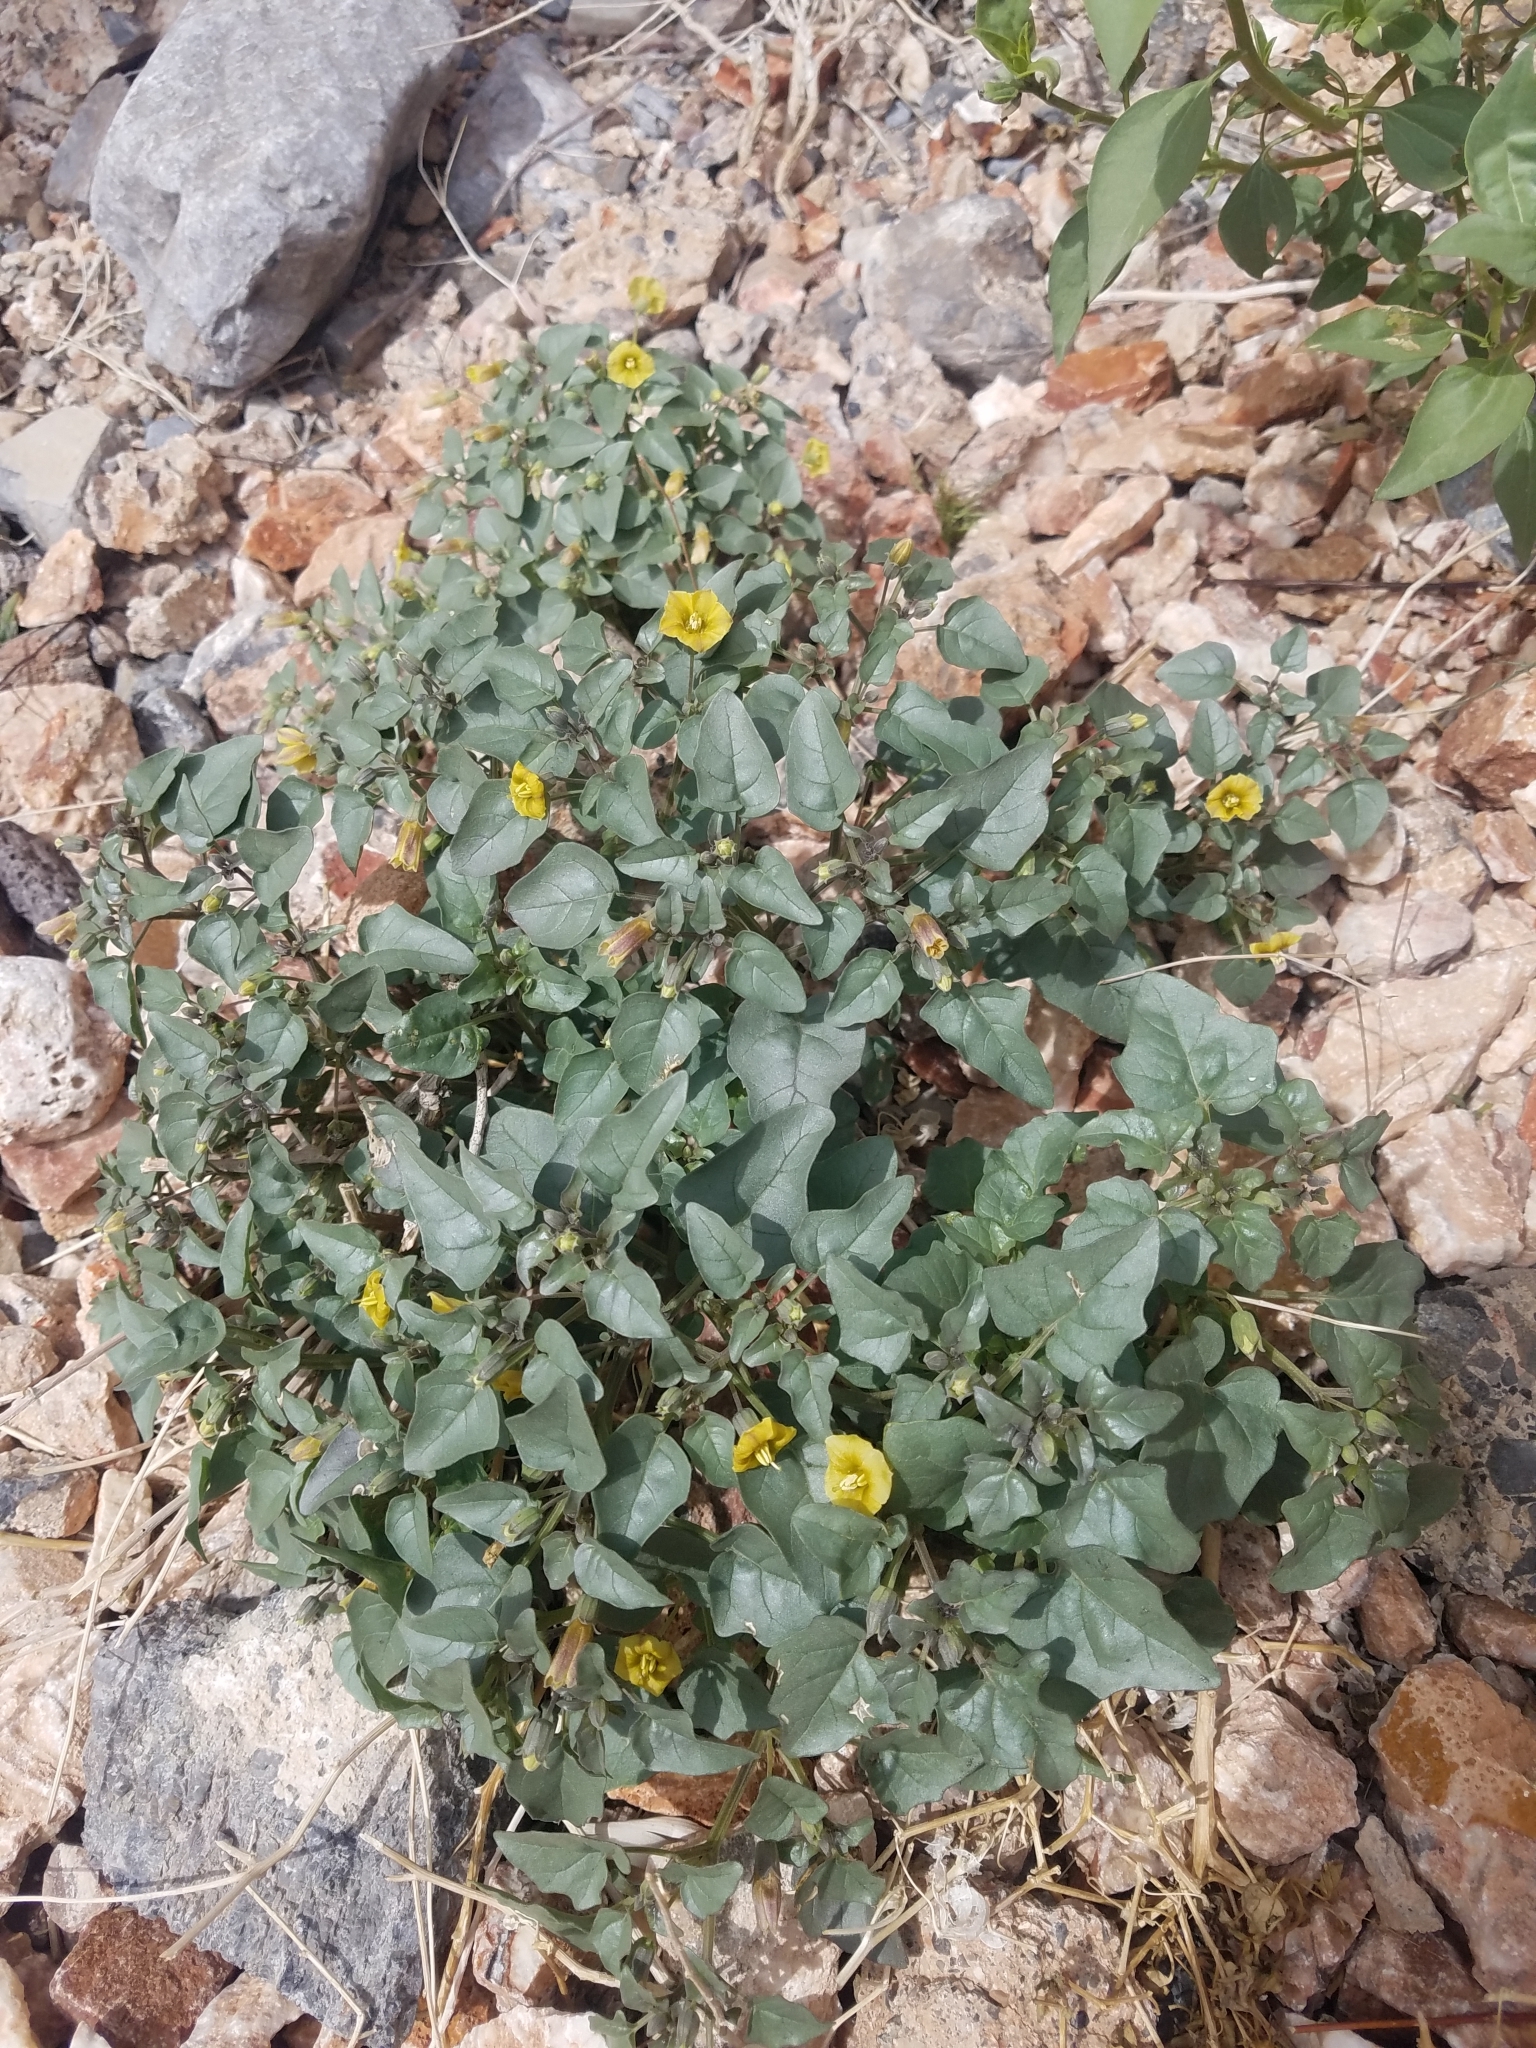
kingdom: Plantae
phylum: Tracheophyta
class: Magnoliopsida
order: Solanales
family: Solanaceae
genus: Physalis
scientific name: Physalis crassifolia
